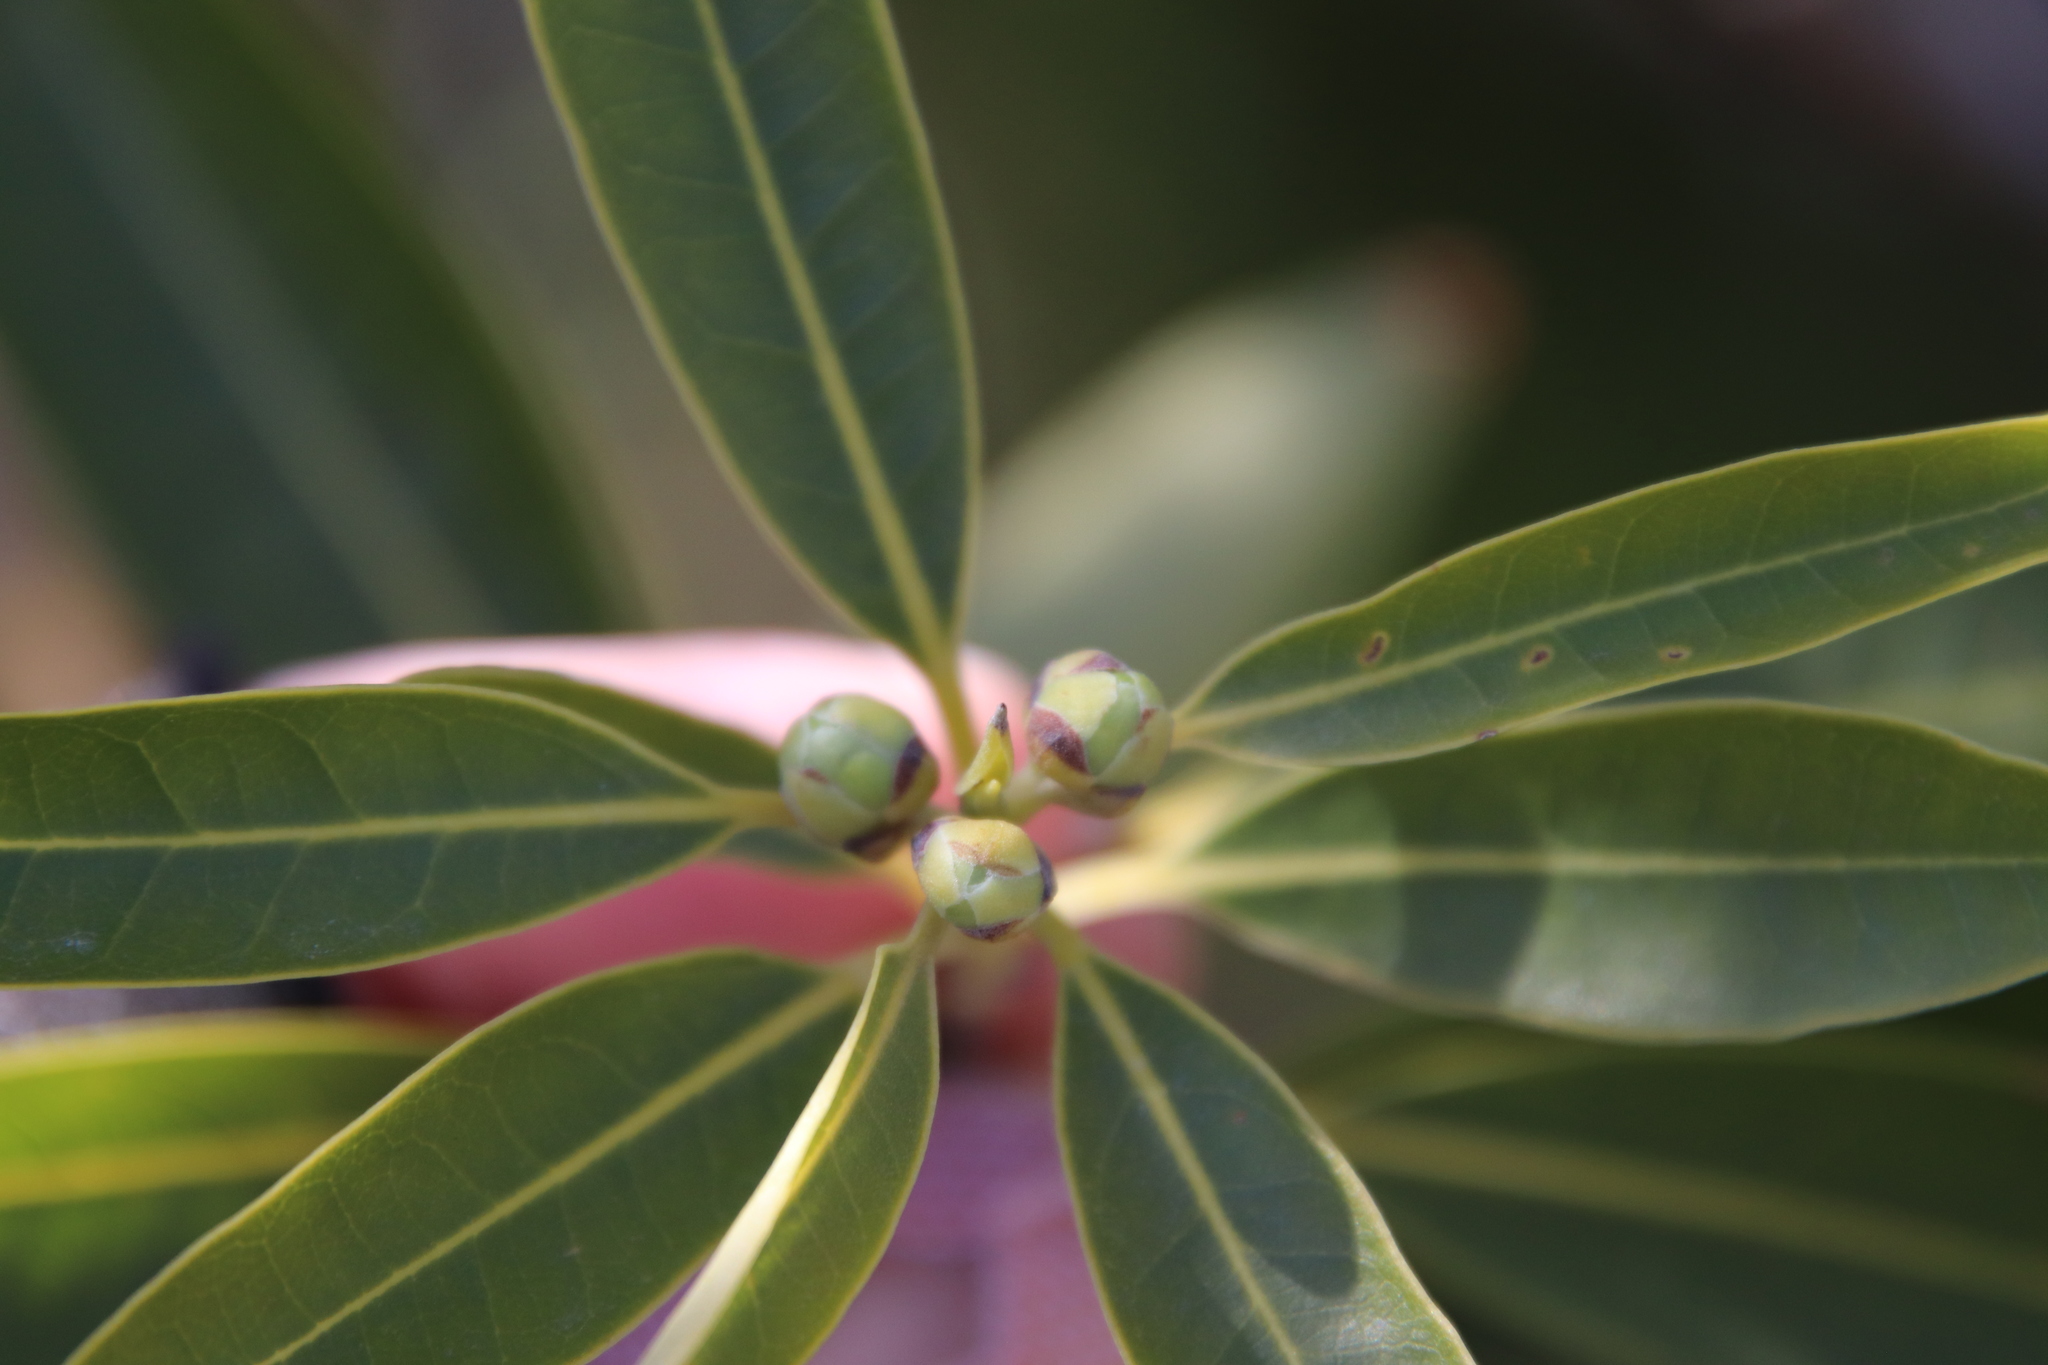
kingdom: Plantae
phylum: Tracheophyta
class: Magnoliopsida
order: Laurales
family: Lauraceae
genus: Umbellularia
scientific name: Umbellularia californica
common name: California bay
